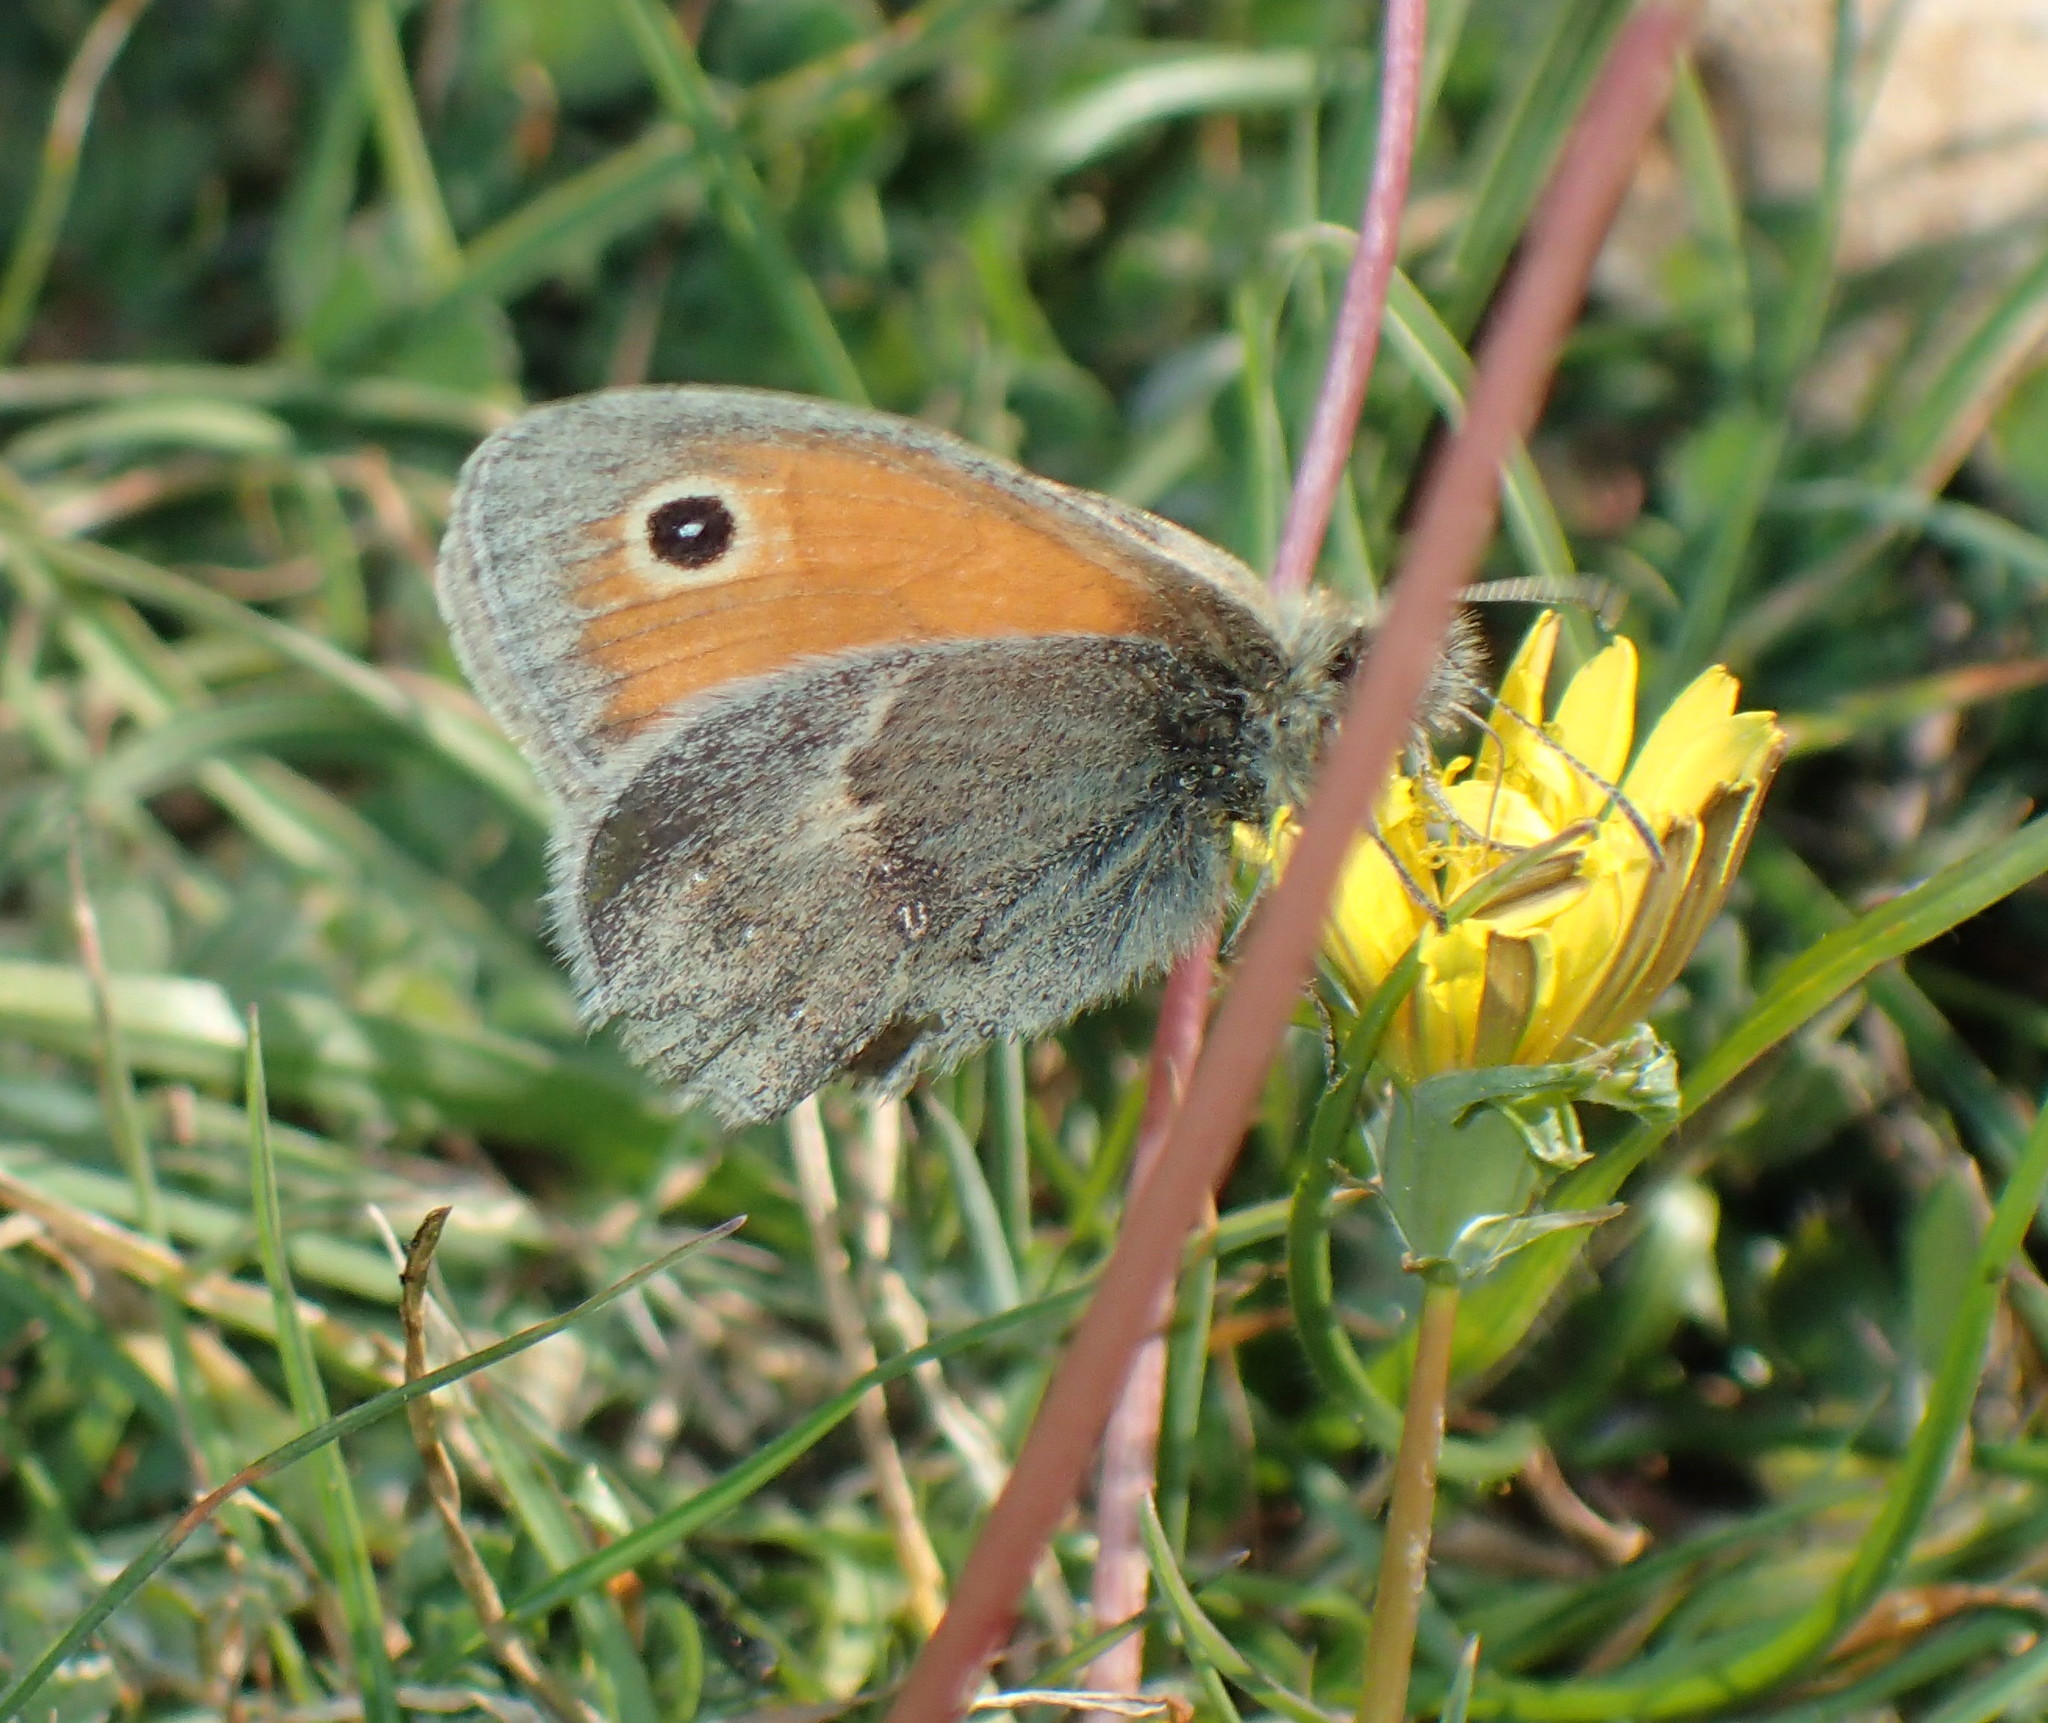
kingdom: Animalia
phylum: Arthropoda
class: Insecta
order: Lepidoptera
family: Nymphalidae
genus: Coenonympha
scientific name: Coenonympha pamphilus
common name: Small heath
